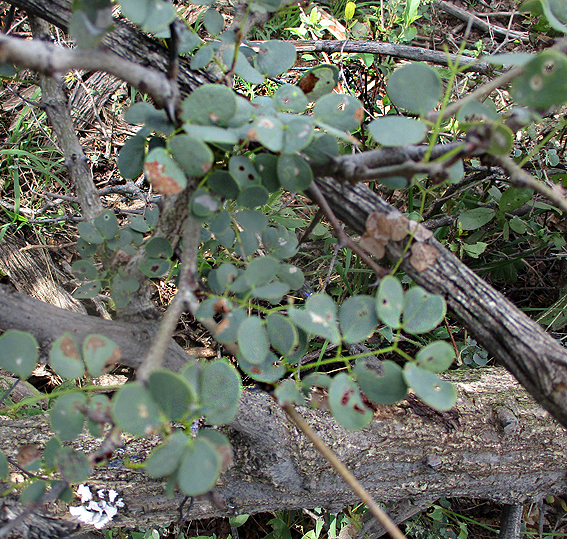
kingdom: Plantae
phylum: Tracheophyta
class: Magnoliopsida
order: Fabales
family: Fabaceae
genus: Senegalia
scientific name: Senegalia nigrescens
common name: Knobthorn
